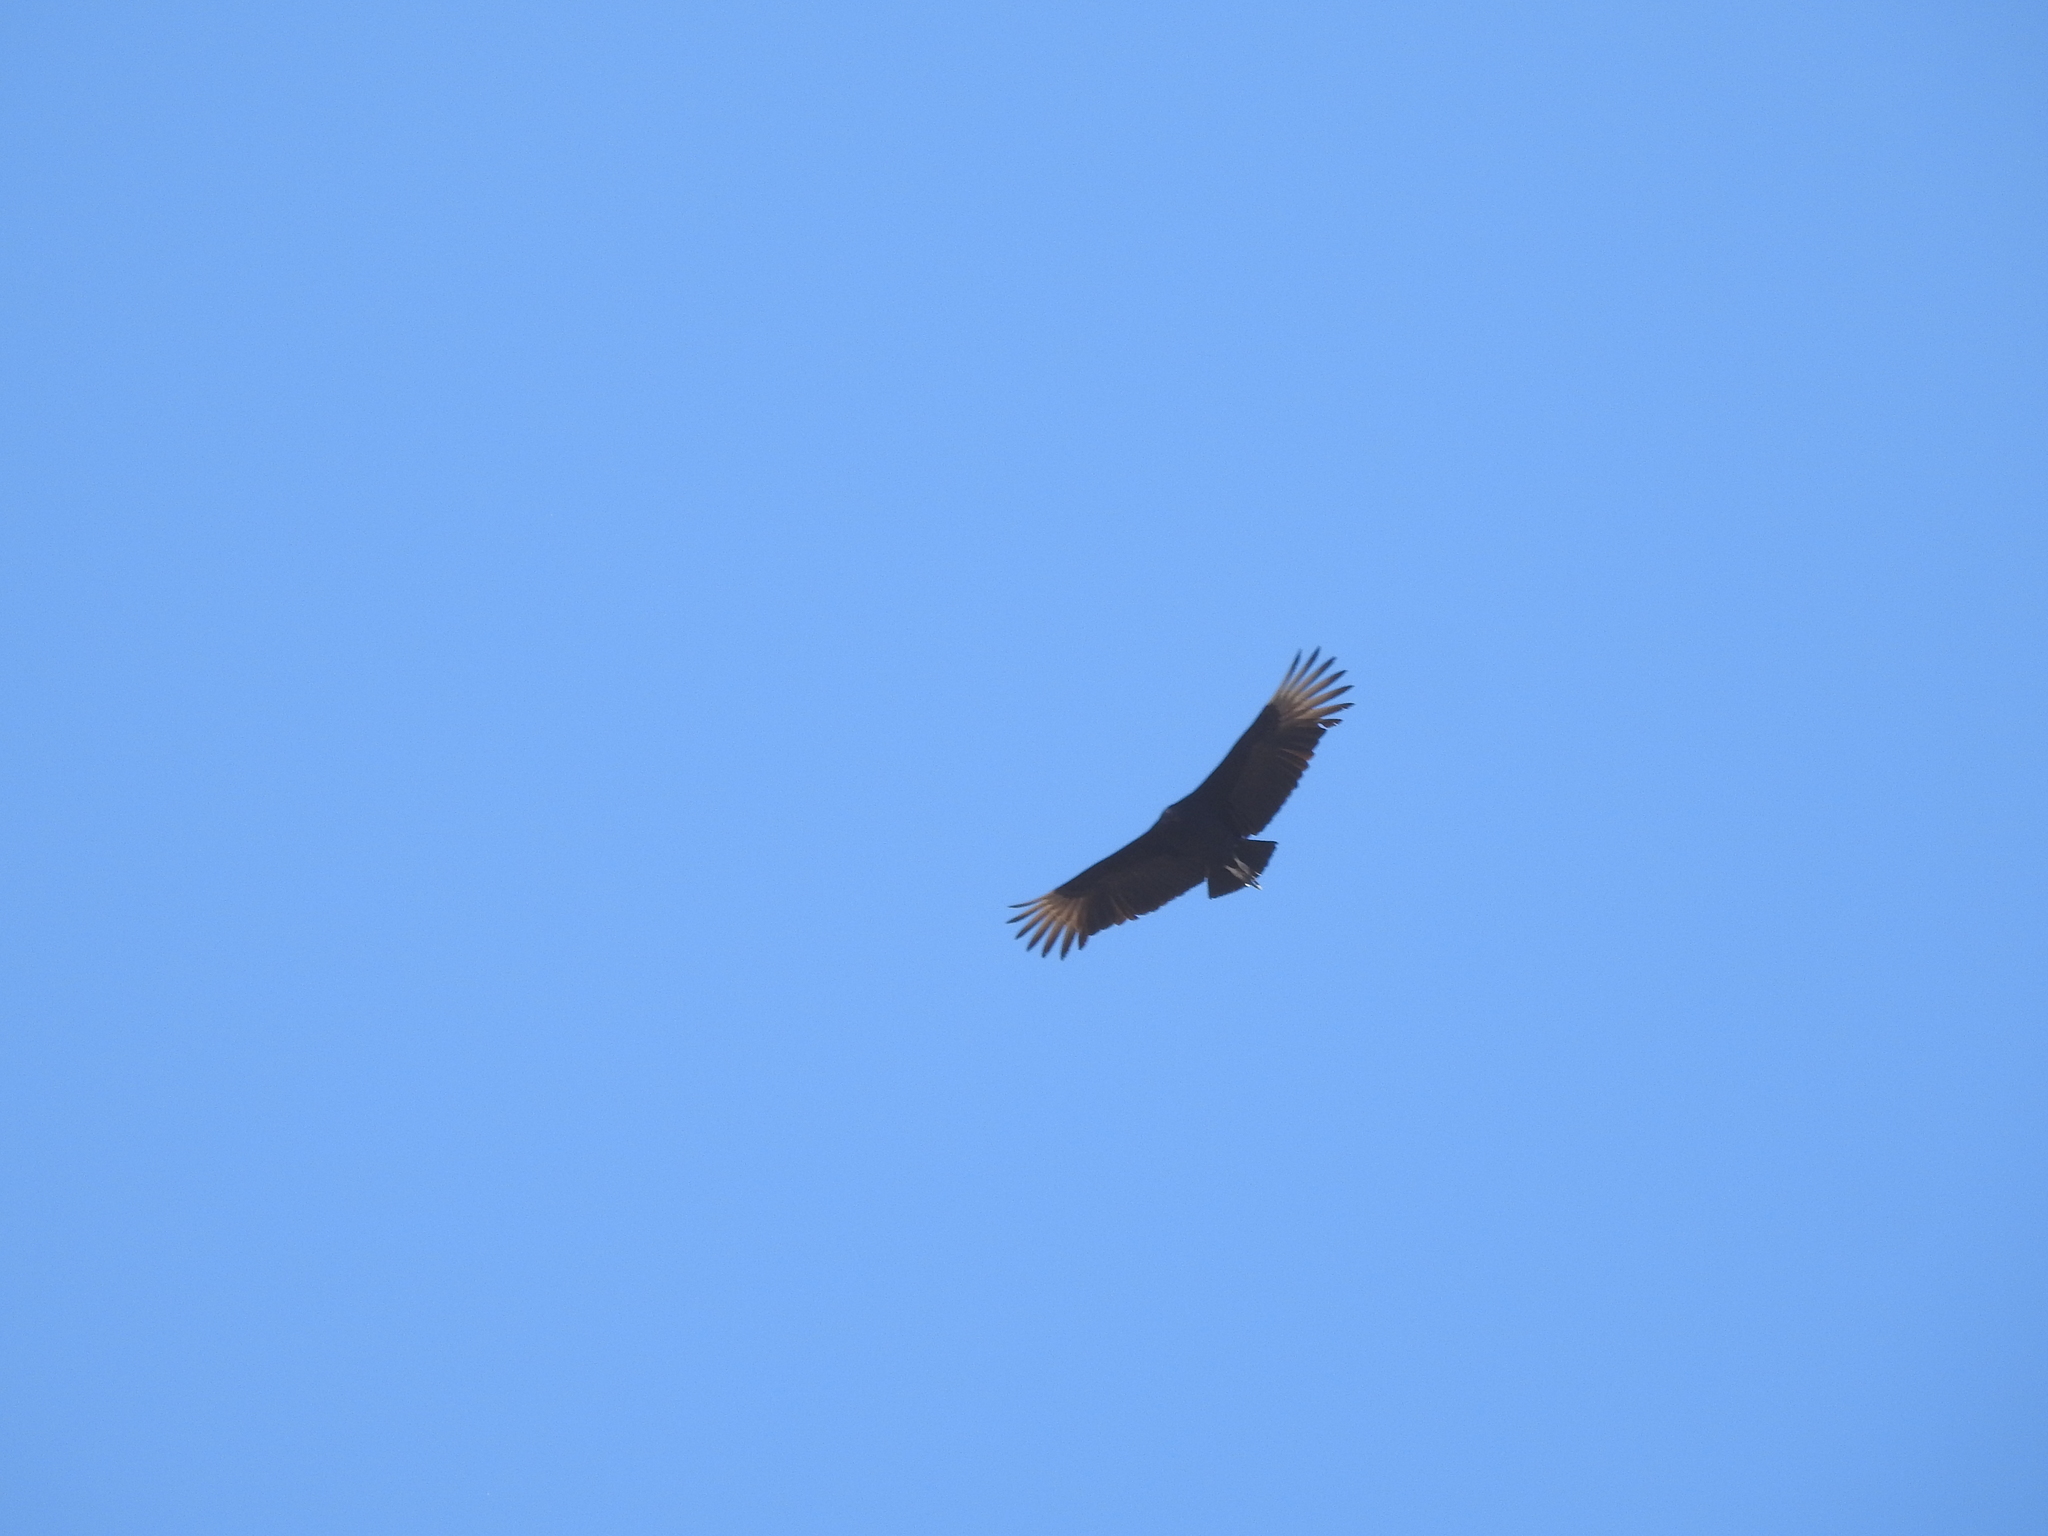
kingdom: Animalia
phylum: Chordata
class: Aves
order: Accipitriformes
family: Cathartidae
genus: Coragyps
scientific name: Coragyps atratus
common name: Black vulture
